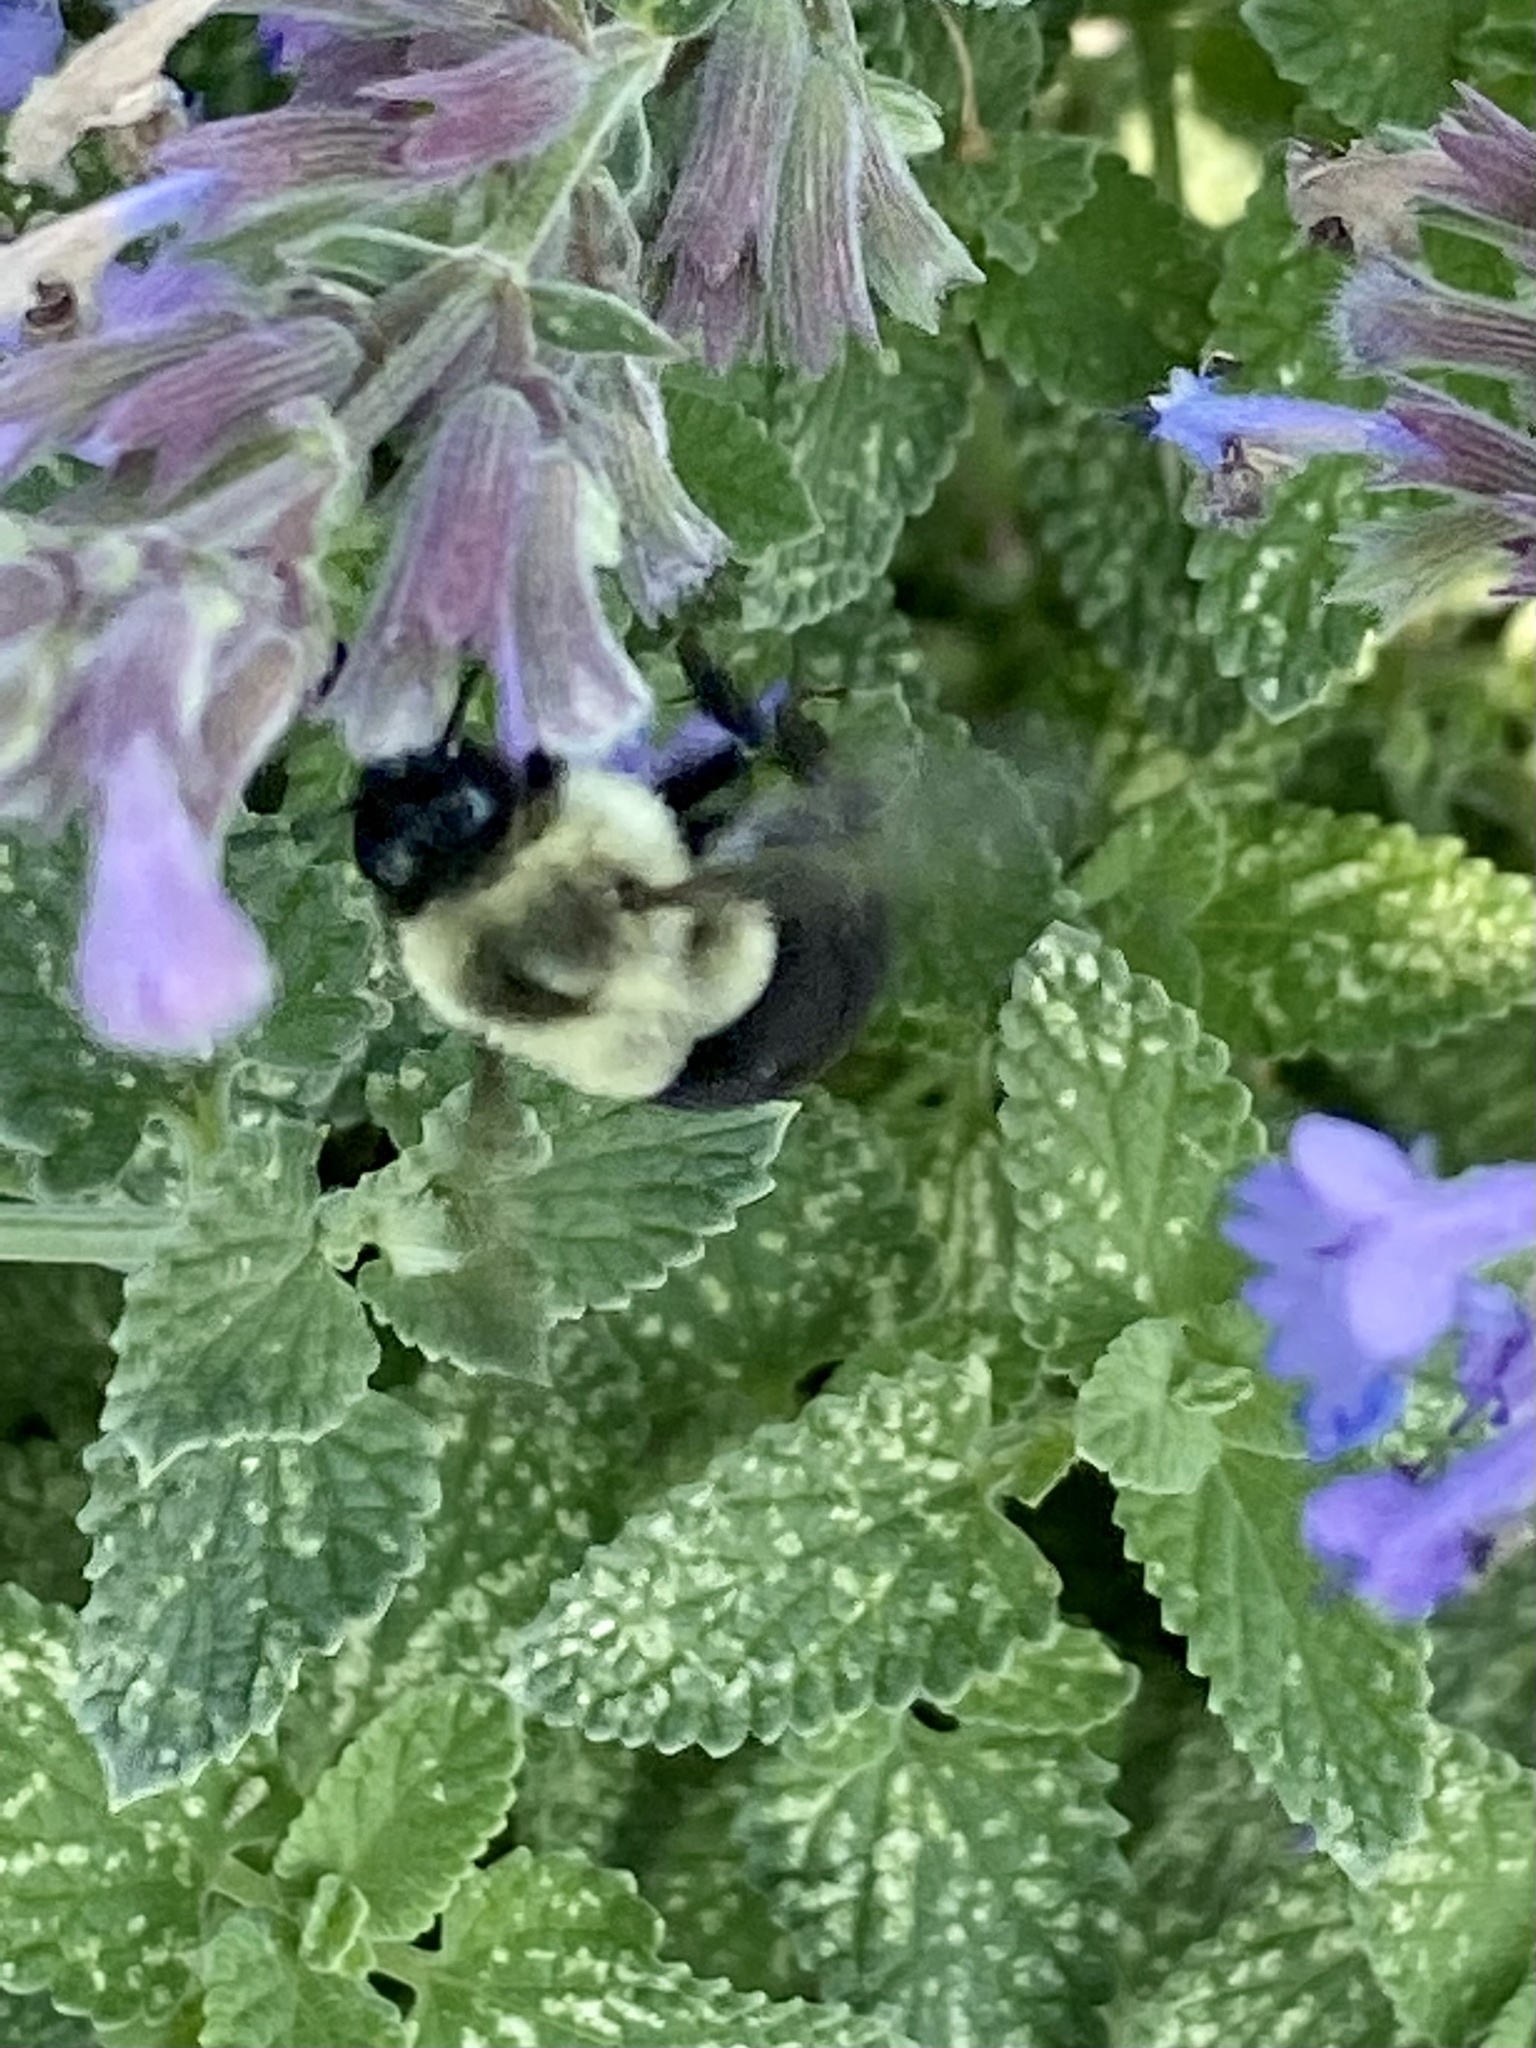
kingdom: Animalia
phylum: Arthropoda
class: Insecta
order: Hymenoptera
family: Apidae
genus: Bombus
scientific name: Bombus impatiens
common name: Common eastern bumble bee
